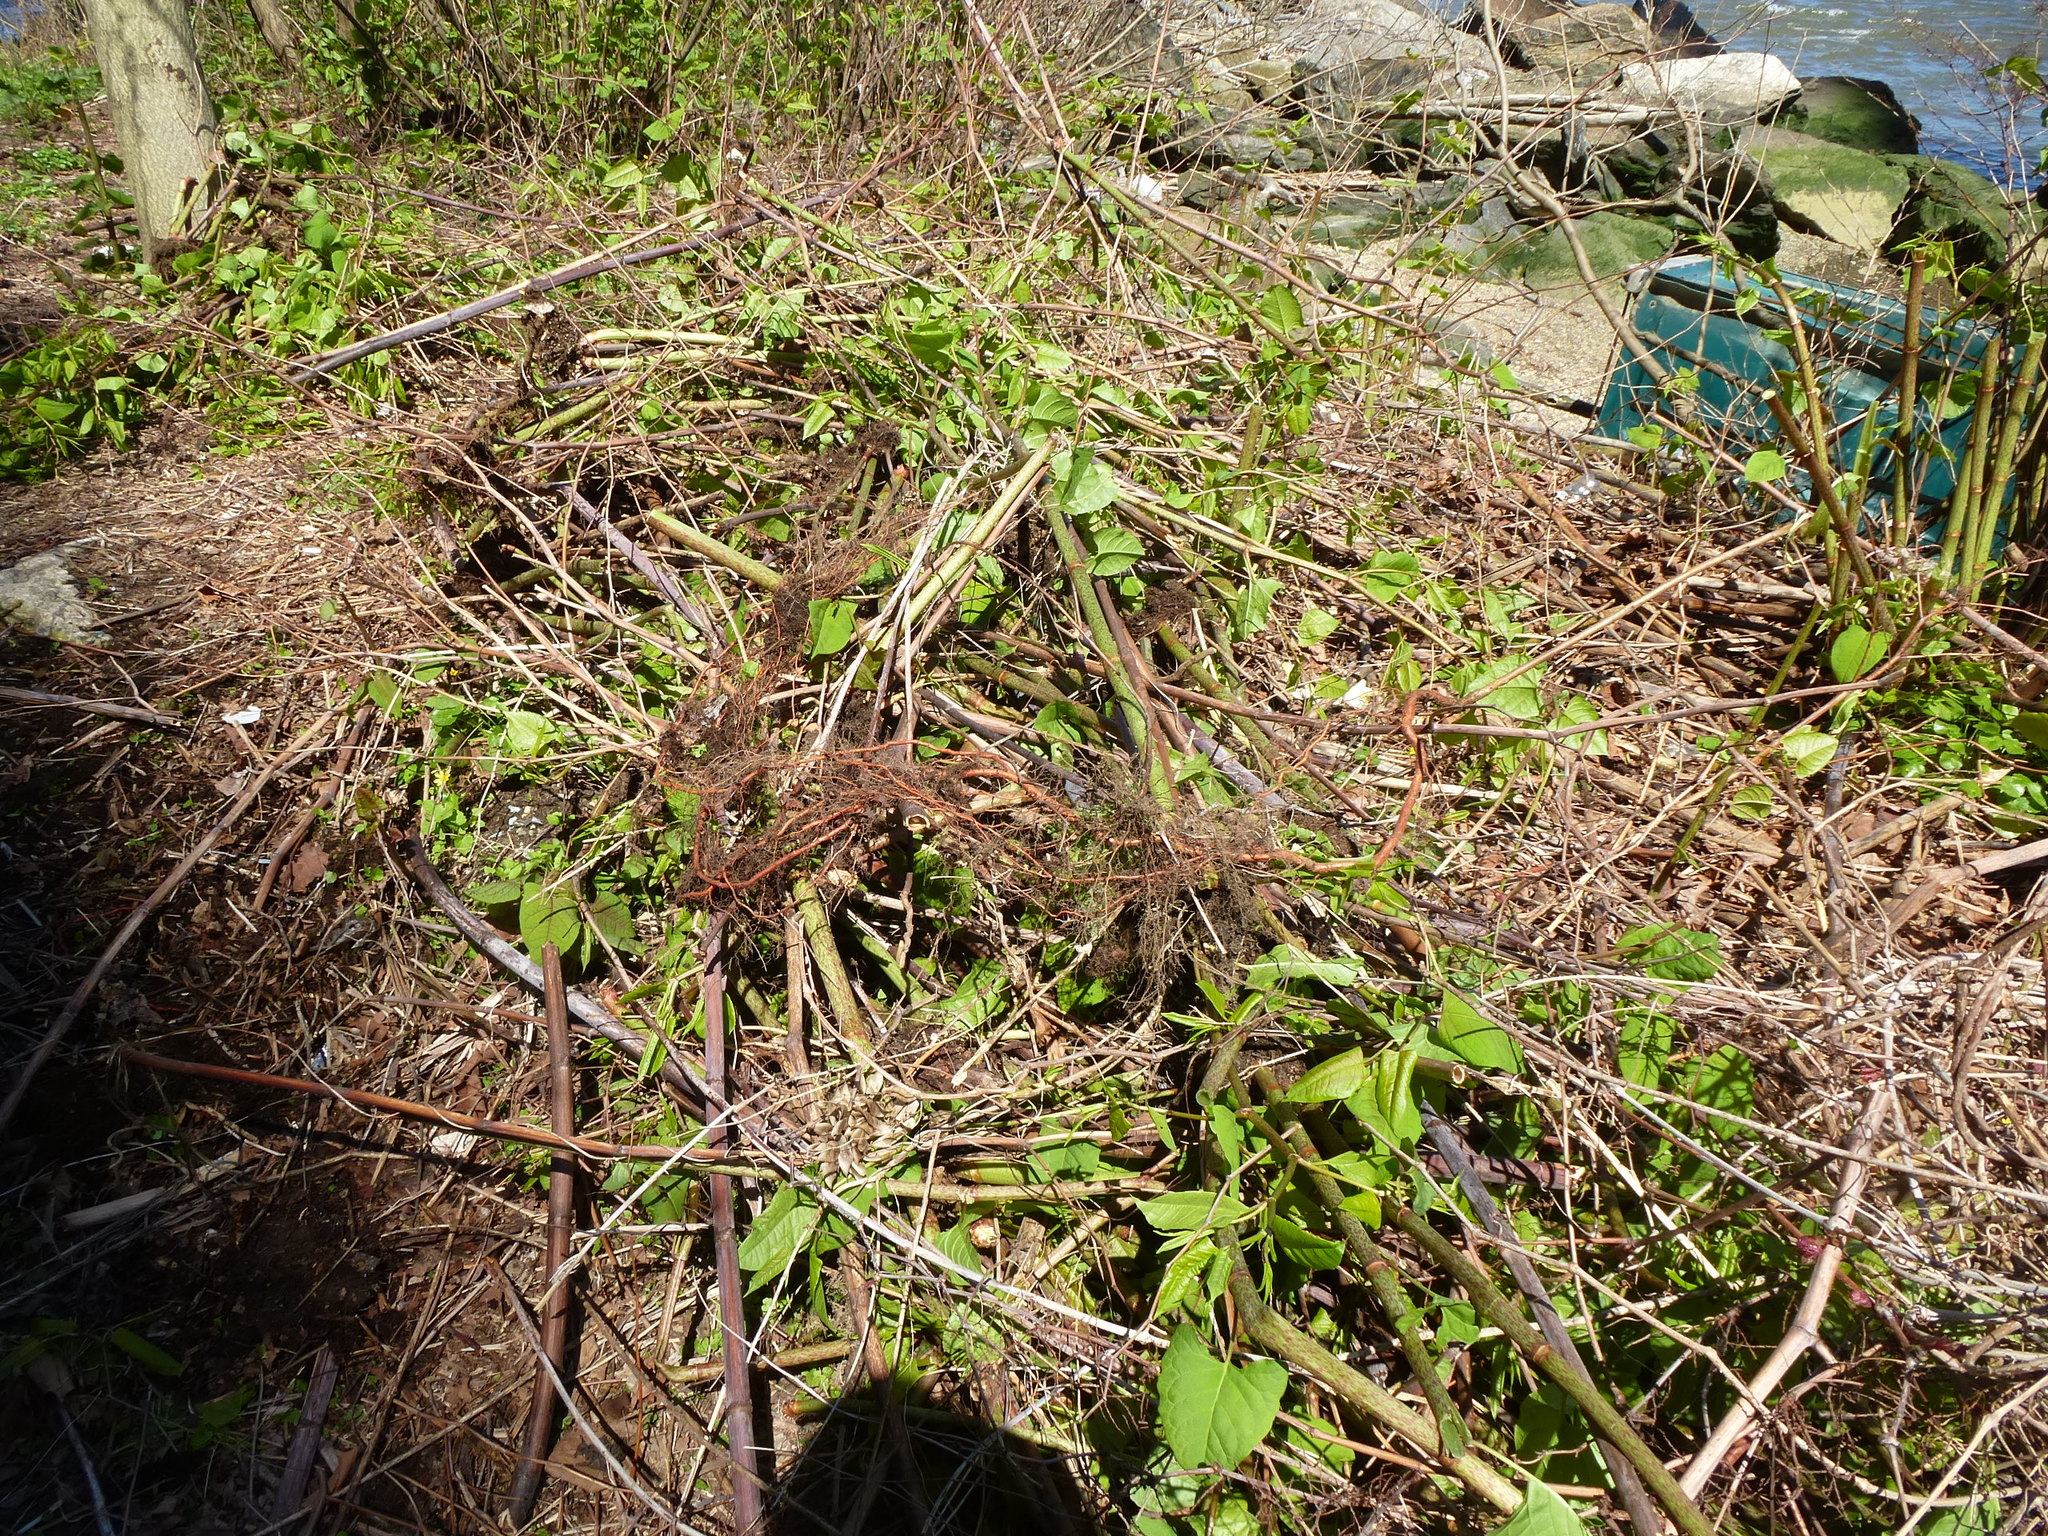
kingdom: Plantae
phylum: Tracheophyta
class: Magnoliopsida
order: Caryophyllales
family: Polygonaceae
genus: Reynoutria
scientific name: Reynoutria japonica
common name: Japanese knotweed
